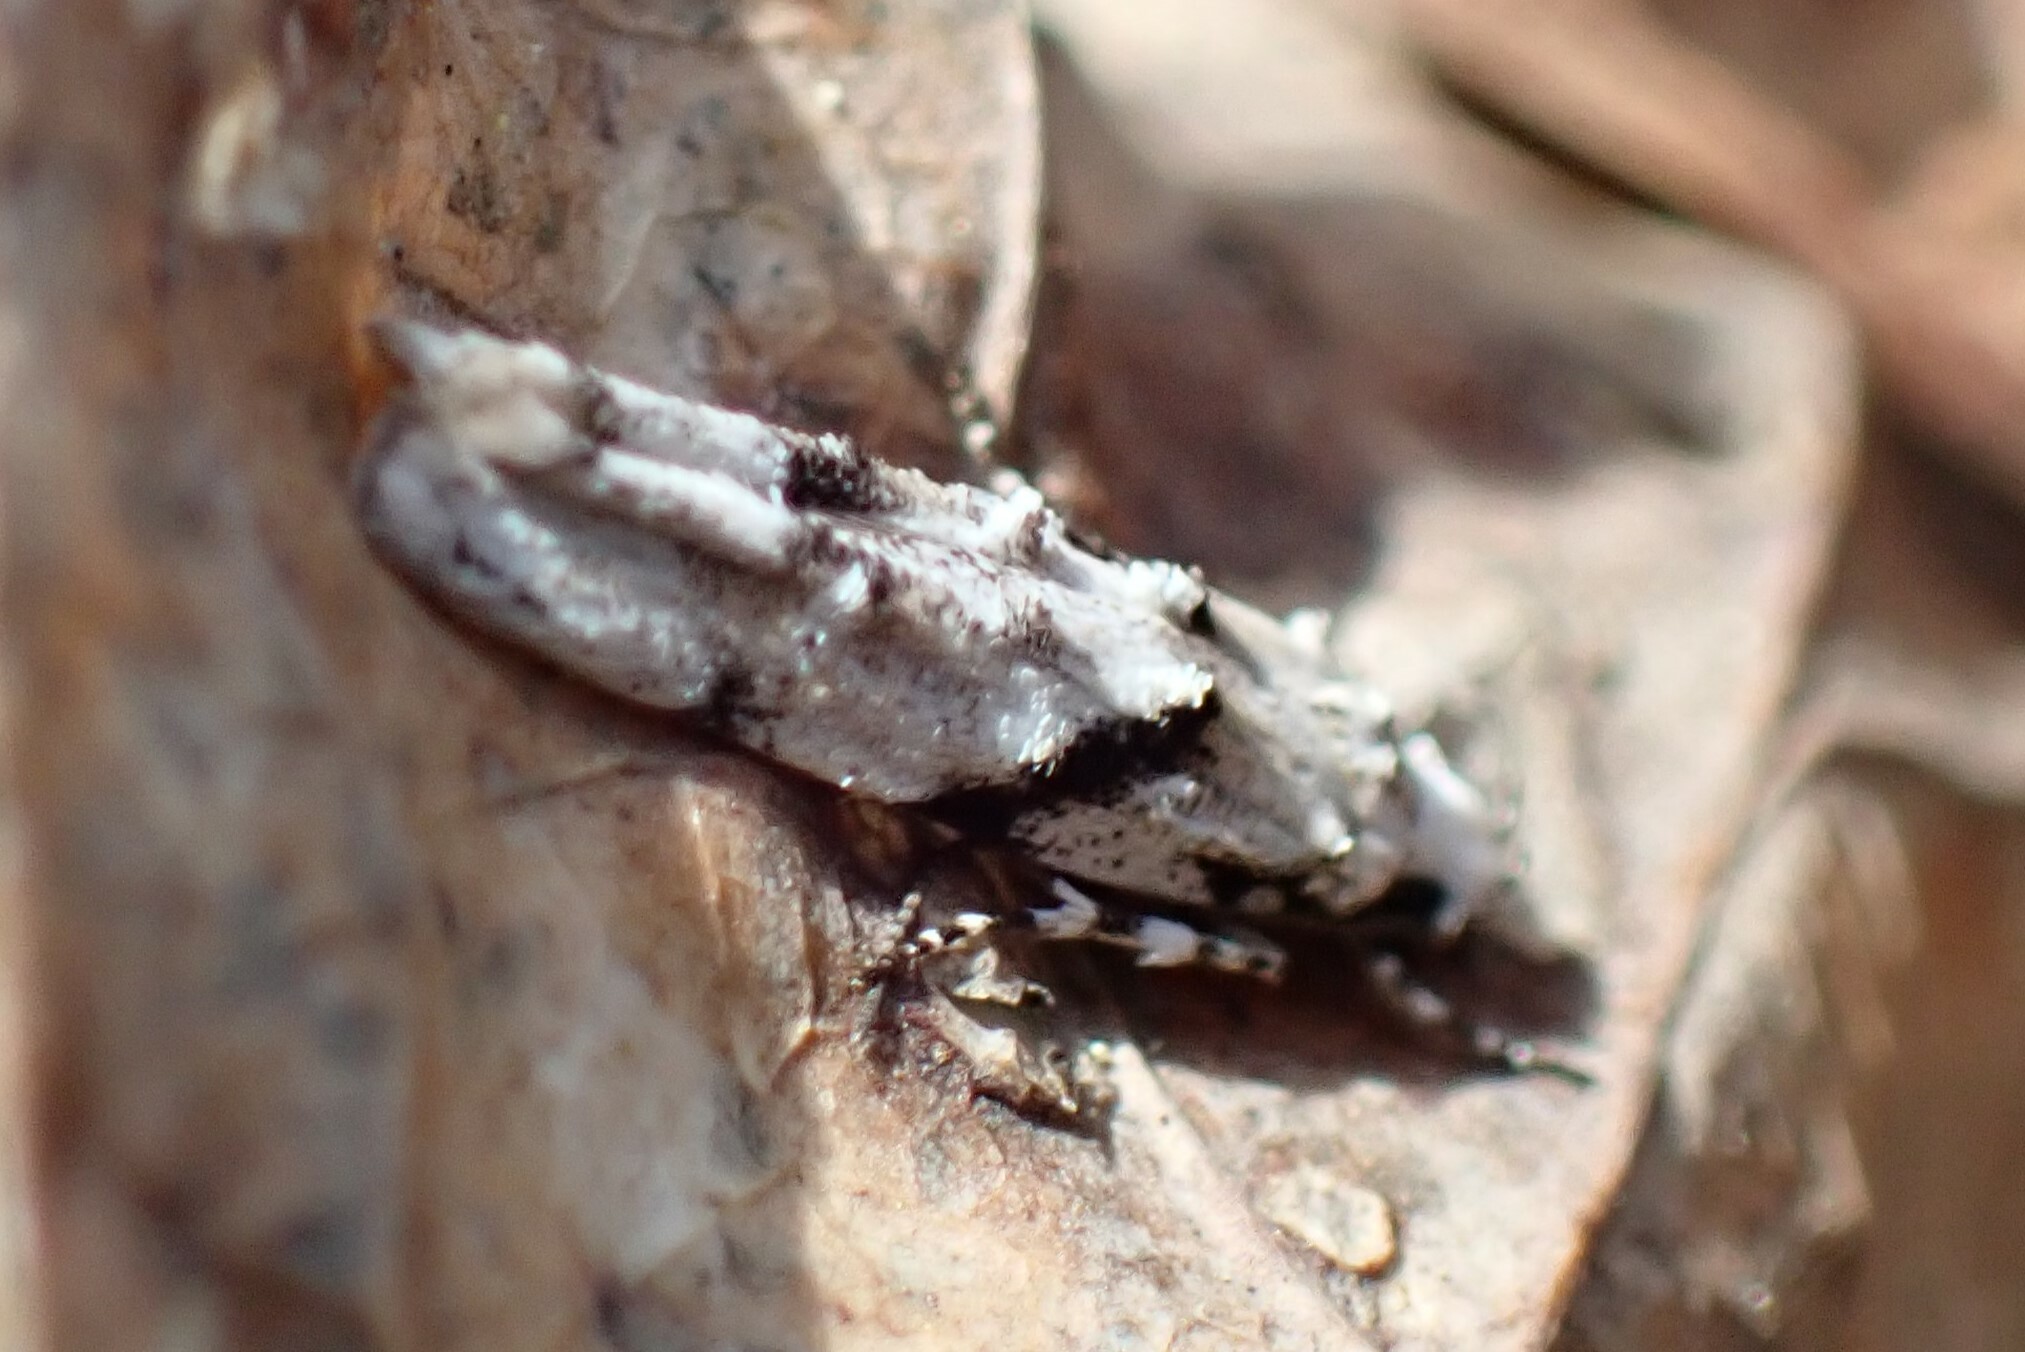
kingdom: Animalia
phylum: Arthropoda
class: Insecta
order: Lepidoptera
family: Gelechiidae
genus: Arogalea
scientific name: Arogalea cristifasciella
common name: White stripe-backed moth
